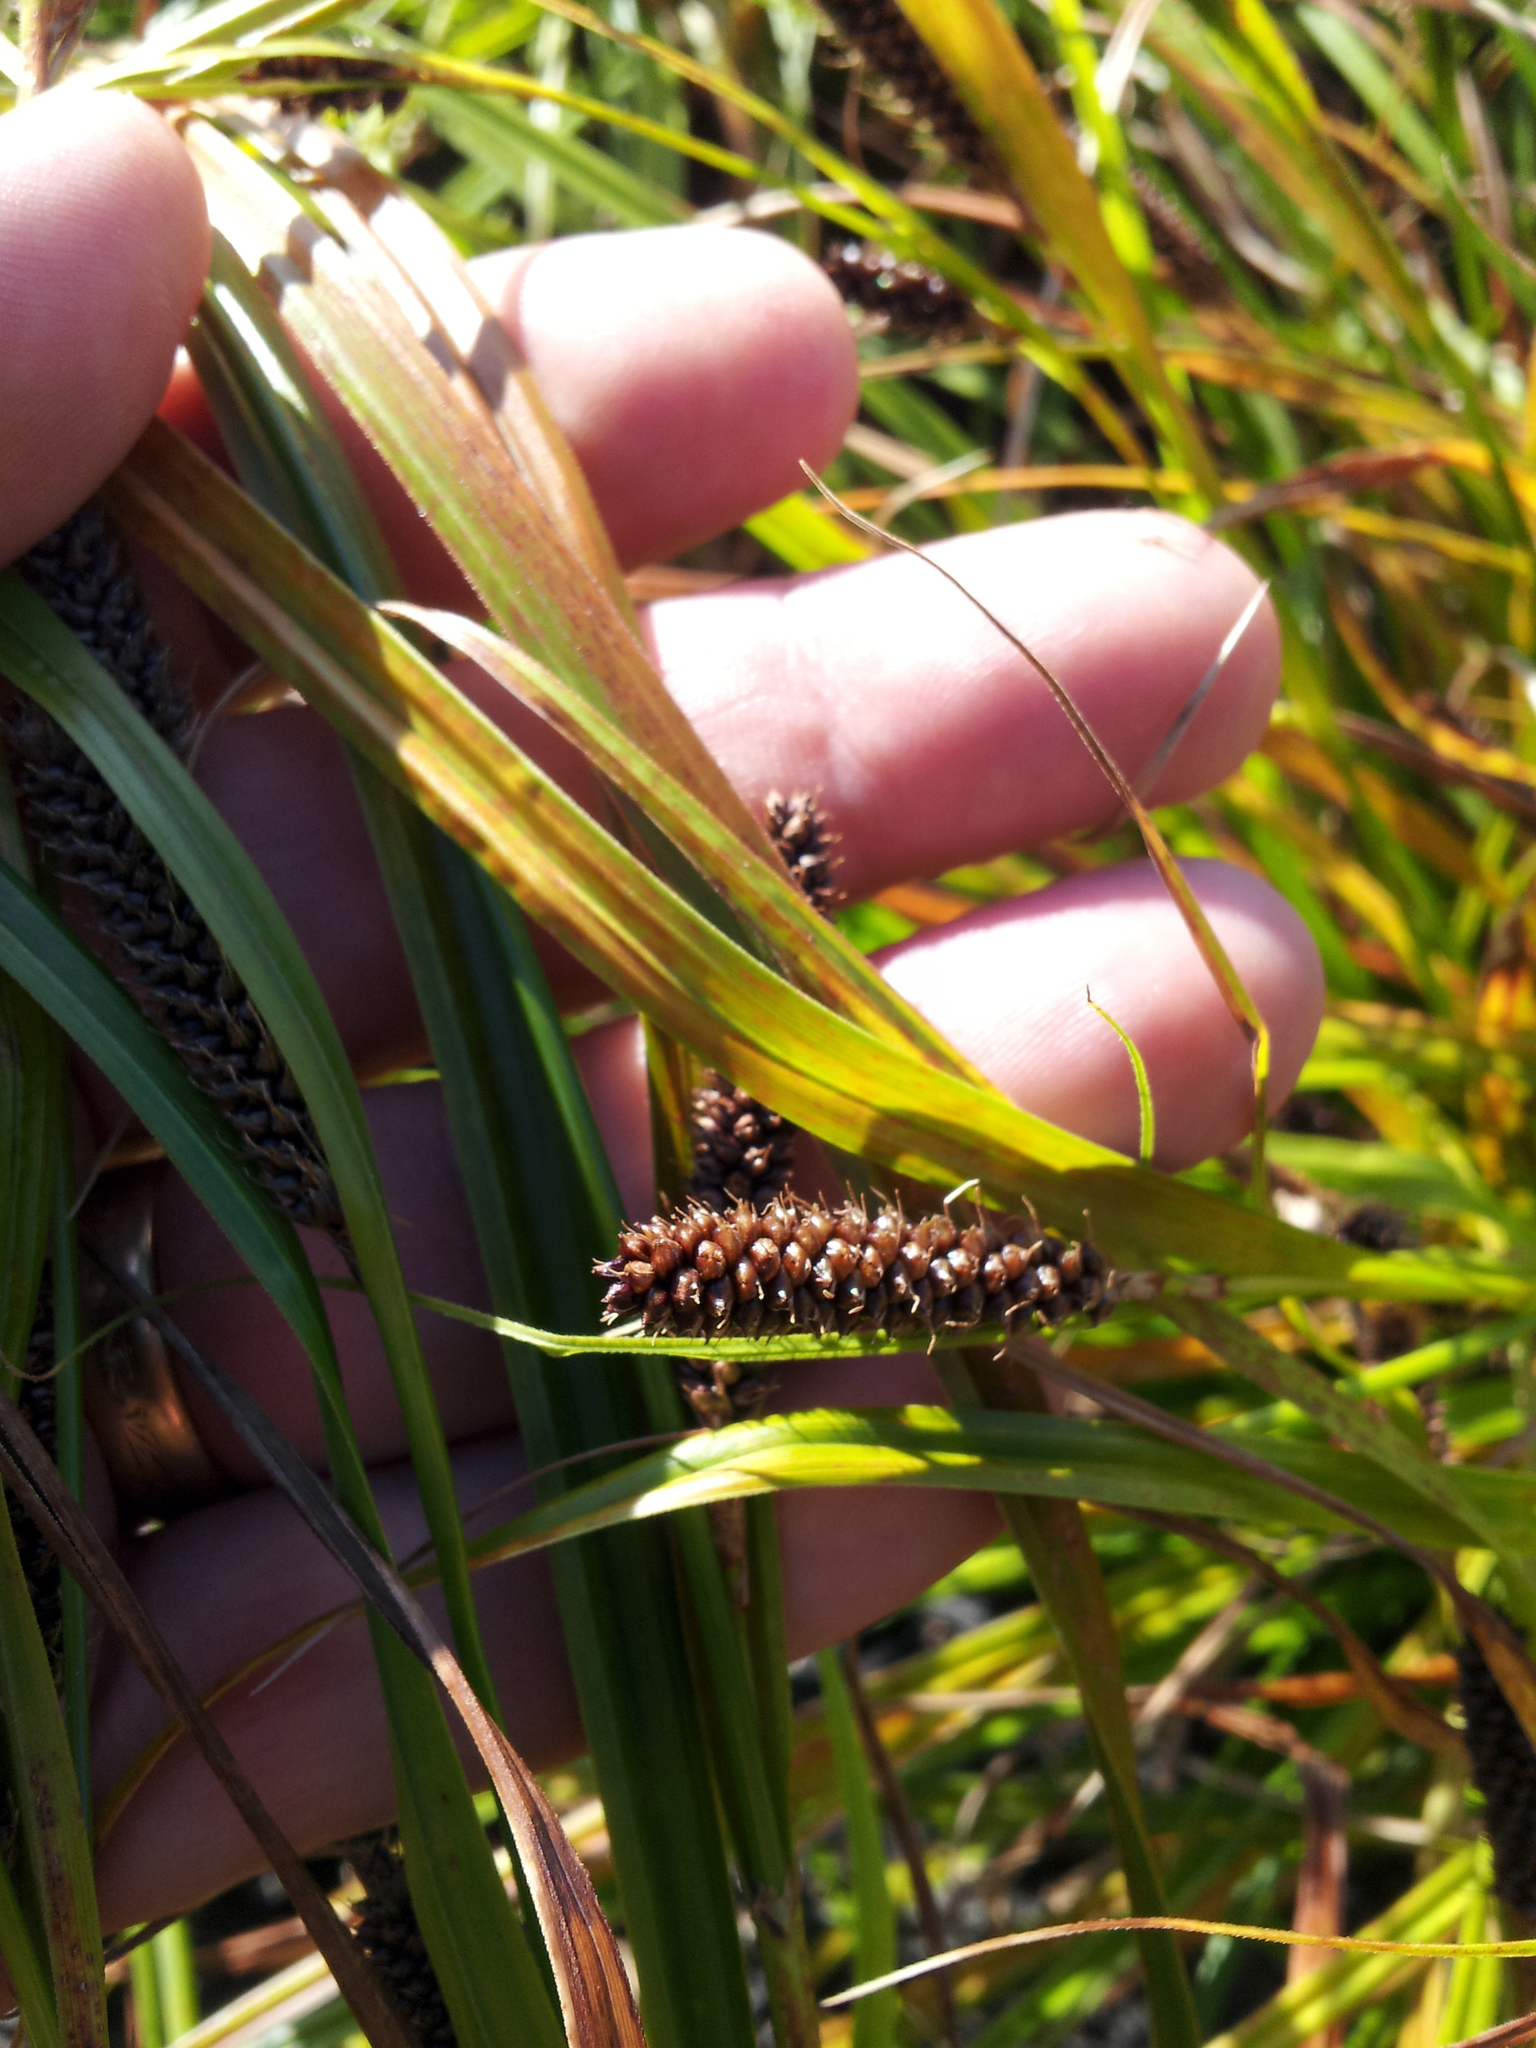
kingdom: Plantae
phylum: Tracheophyta
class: Liliopsida
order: Poales
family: Cyperaceae
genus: Carex
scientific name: Carex lambertiana
